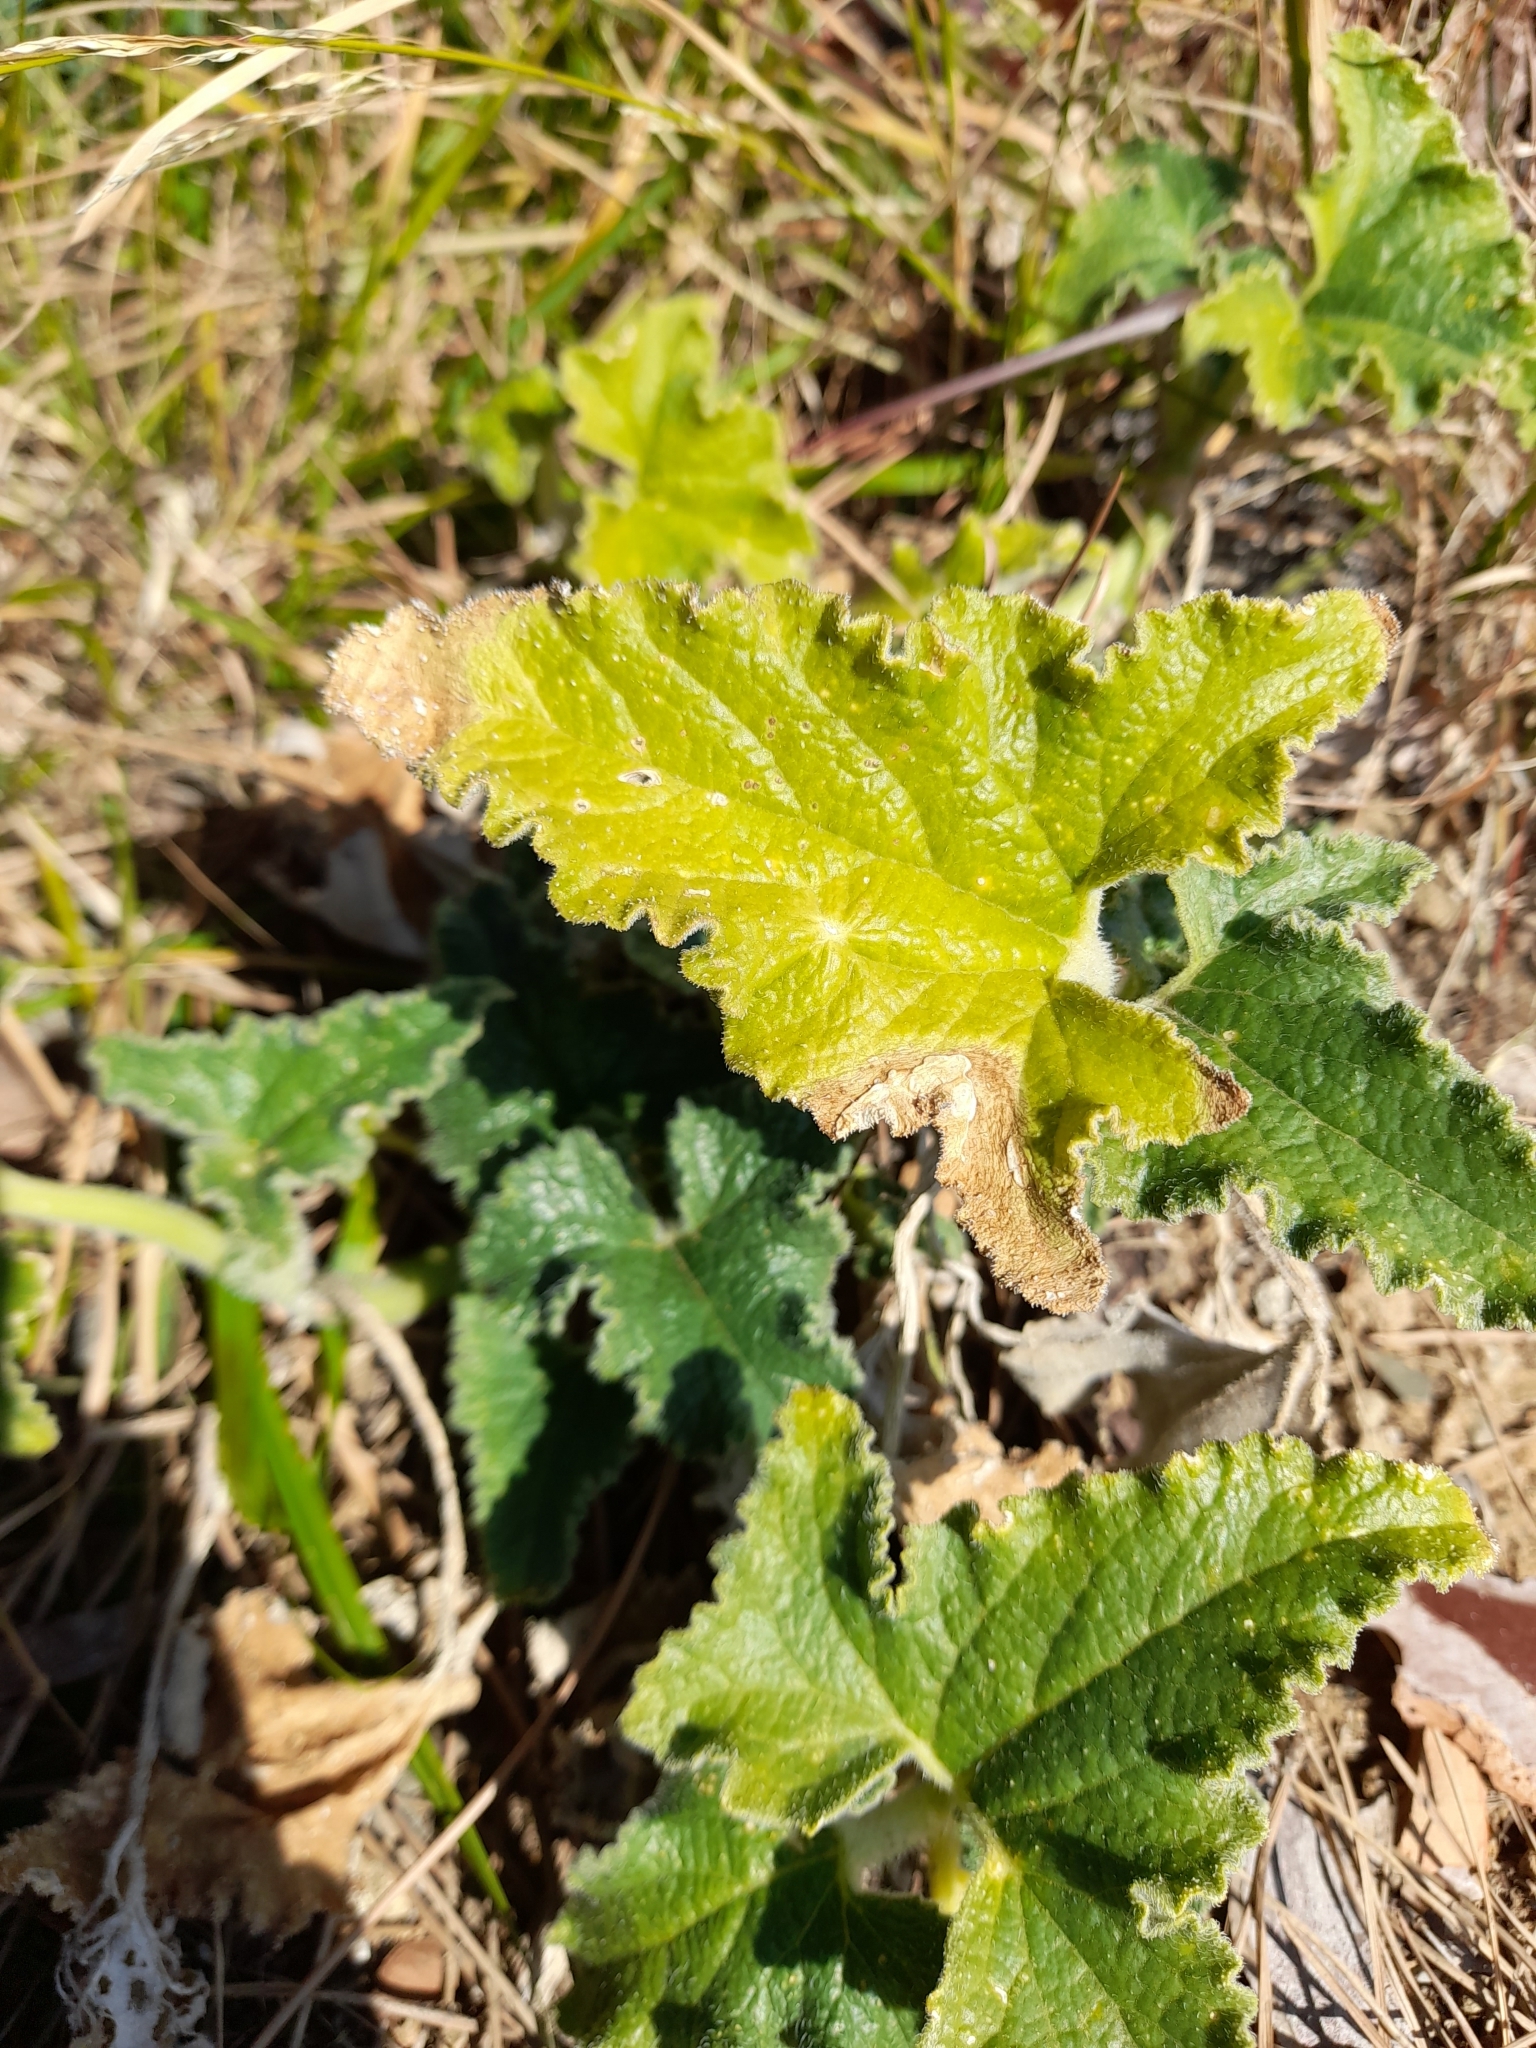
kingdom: Plantae
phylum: Tracheophyta
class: Magnoliopsida
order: Cucurbitales
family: Cucurbitaceae
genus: Ecballium
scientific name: Ecballium elaterium
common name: Squirting cucumber
